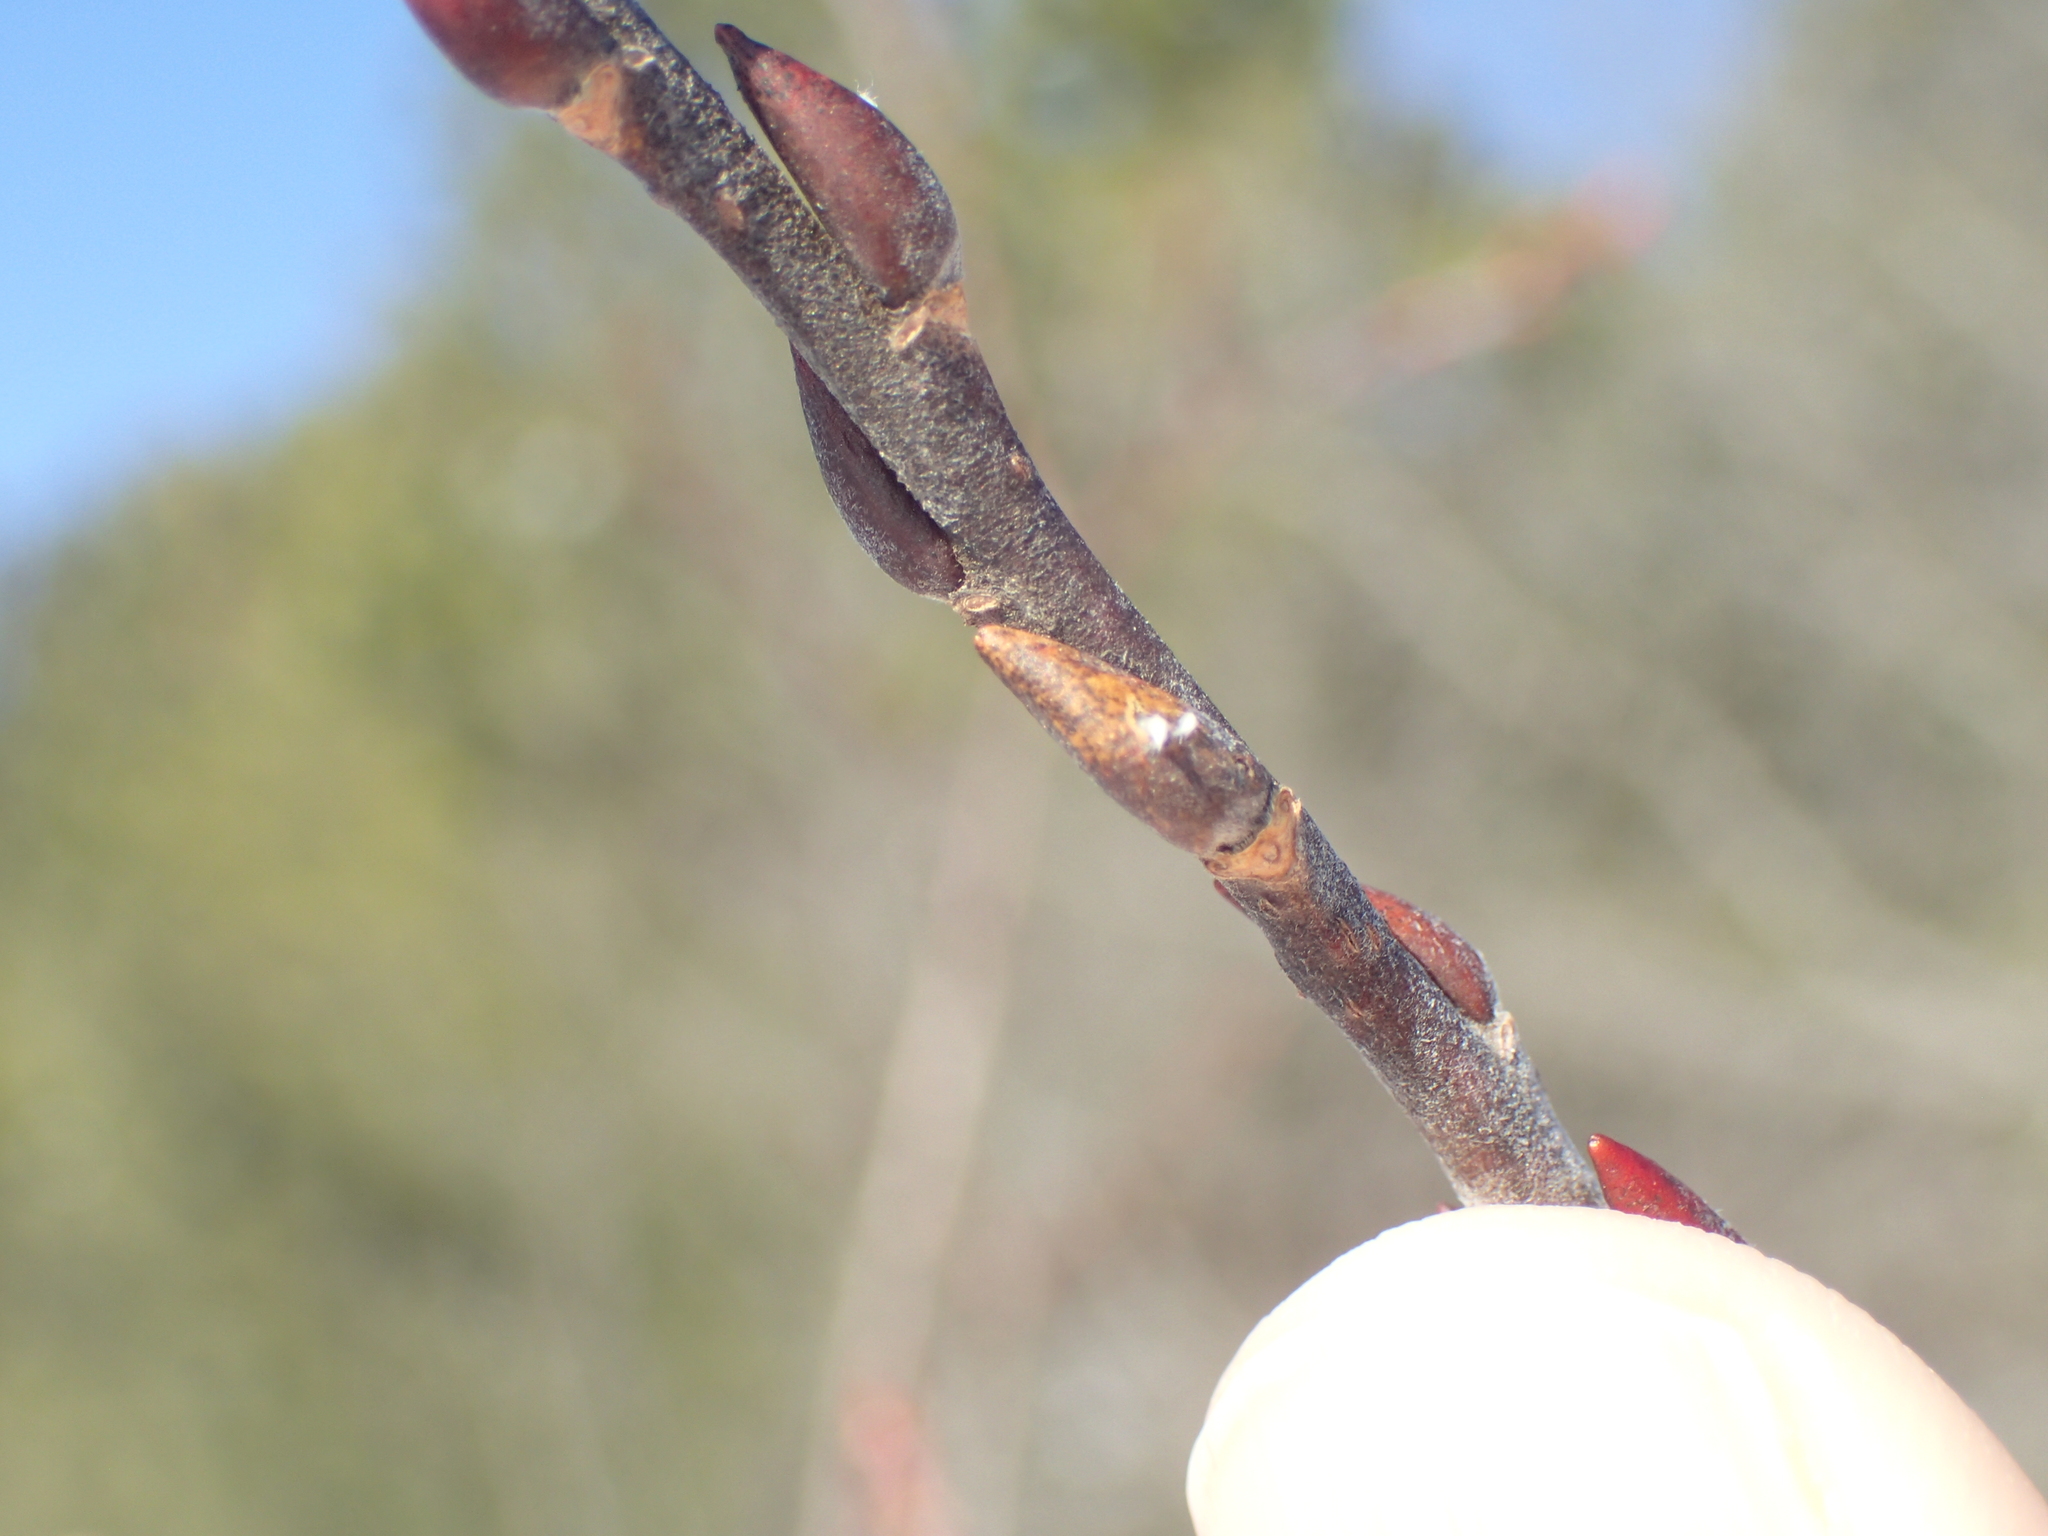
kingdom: Plantae
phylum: Tracheophyta
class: Magnoliopsida
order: Malpighiales
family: Salicaceae
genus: Salix
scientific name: Salix eriocephala
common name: Heart-leaved willow
